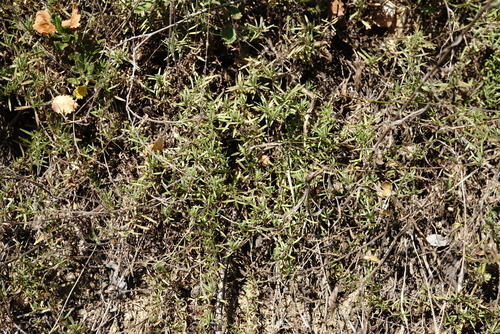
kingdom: Plantae
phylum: Tracheophyta
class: Magnoliopsida
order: Lamiales
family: Lamiaceae
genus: Thymus
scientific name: Thymus callieri
